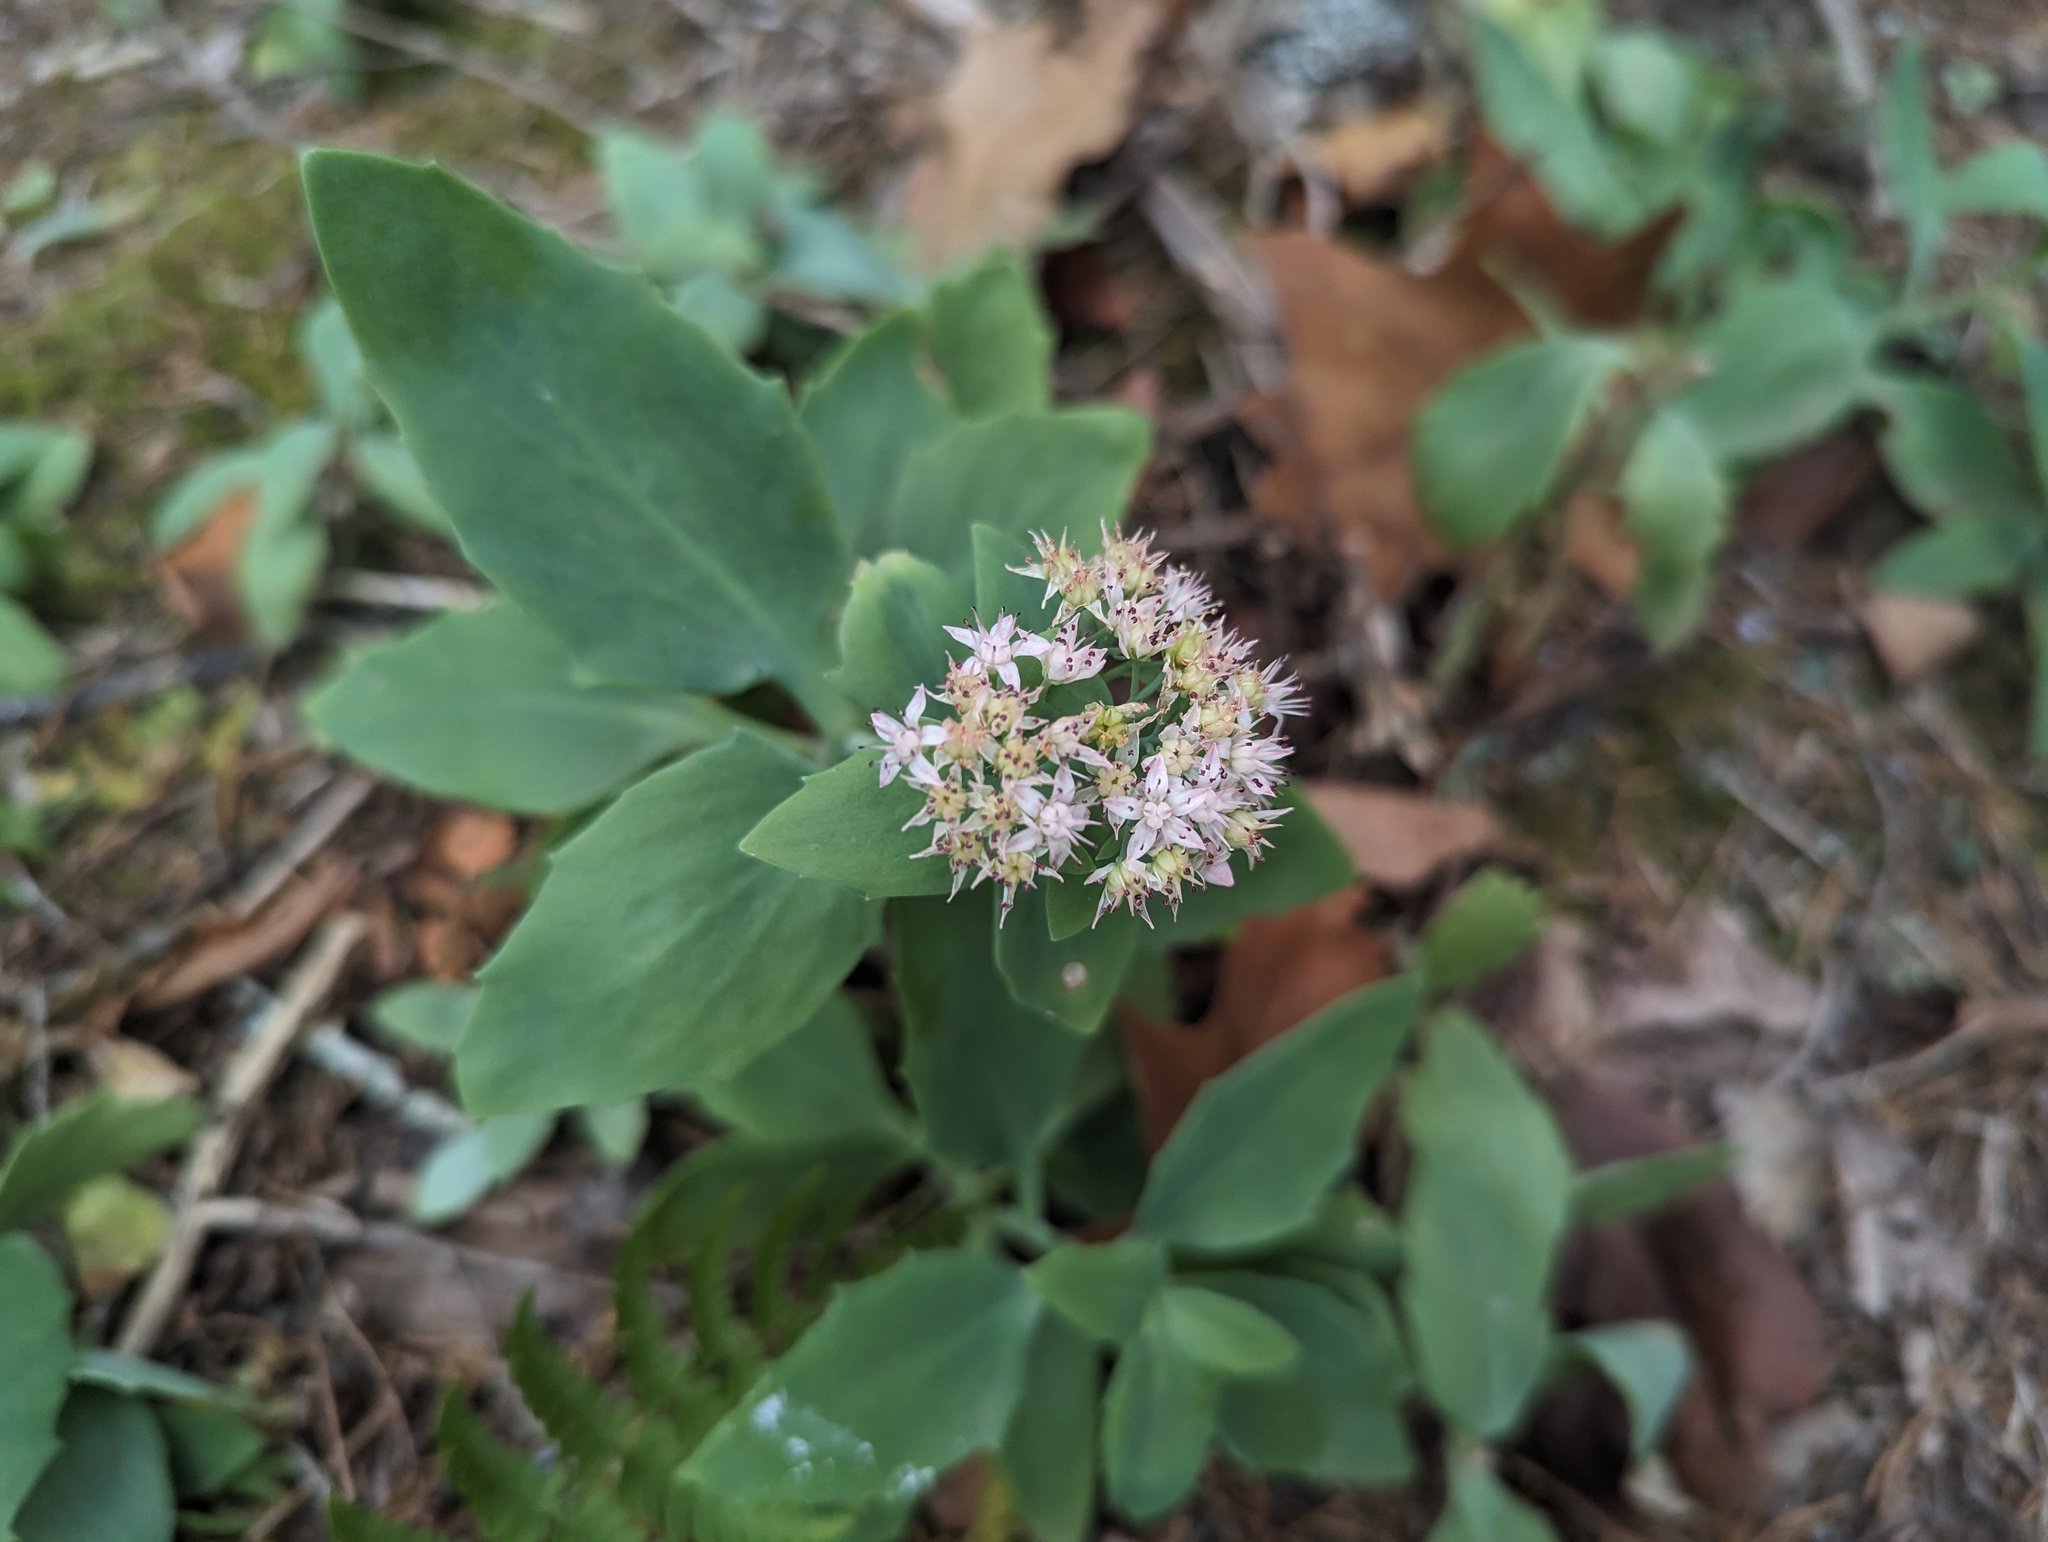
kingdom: Plantae
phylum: Tracheophyta
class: Magnoliopsida
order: Saxifragales
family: Crassulaceae
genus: Hylotelephium
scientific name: Hylotelephium telephioides
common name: Allegheny stonecrop
